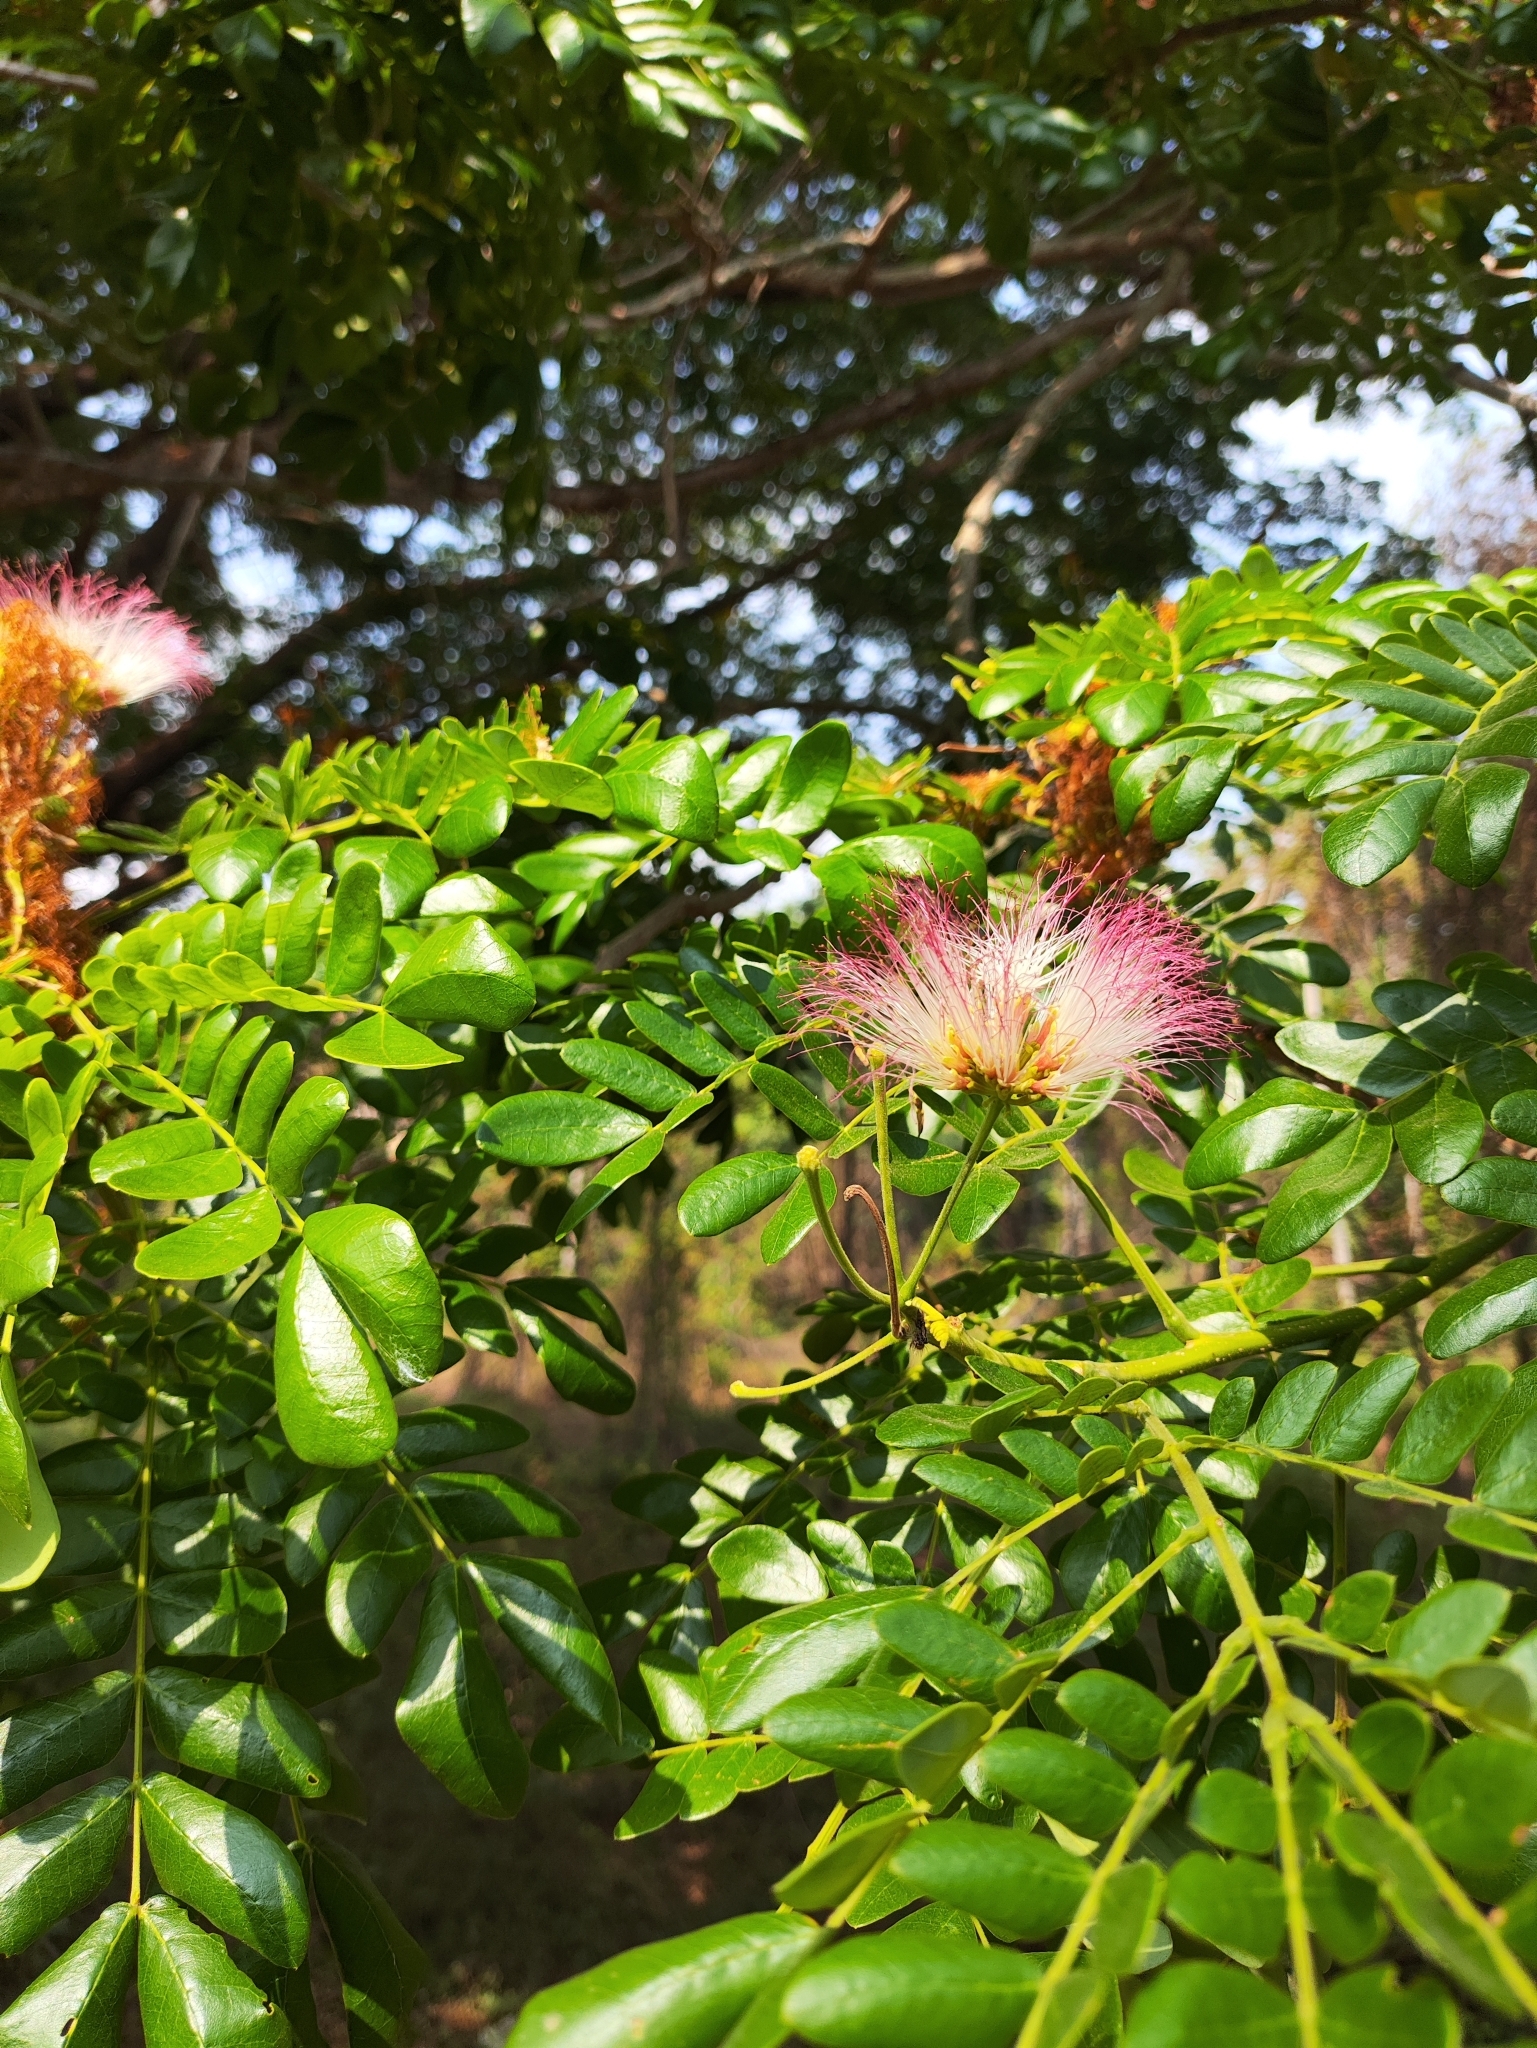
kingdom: Plantae
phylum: Tracheophyta
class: Magnoliopsida
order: Fabales
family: Fabaceae
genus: Samanea
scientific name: Samanea saman
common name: Raintree
